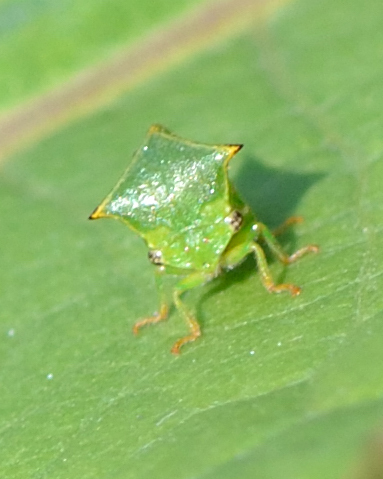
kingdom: Animalia
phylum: Arthropoda
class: Insecta
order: Hemiptera
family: Membracidae
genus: Stictocephala
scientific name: Stictocephala bisonia
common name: American buffalo treehopper
